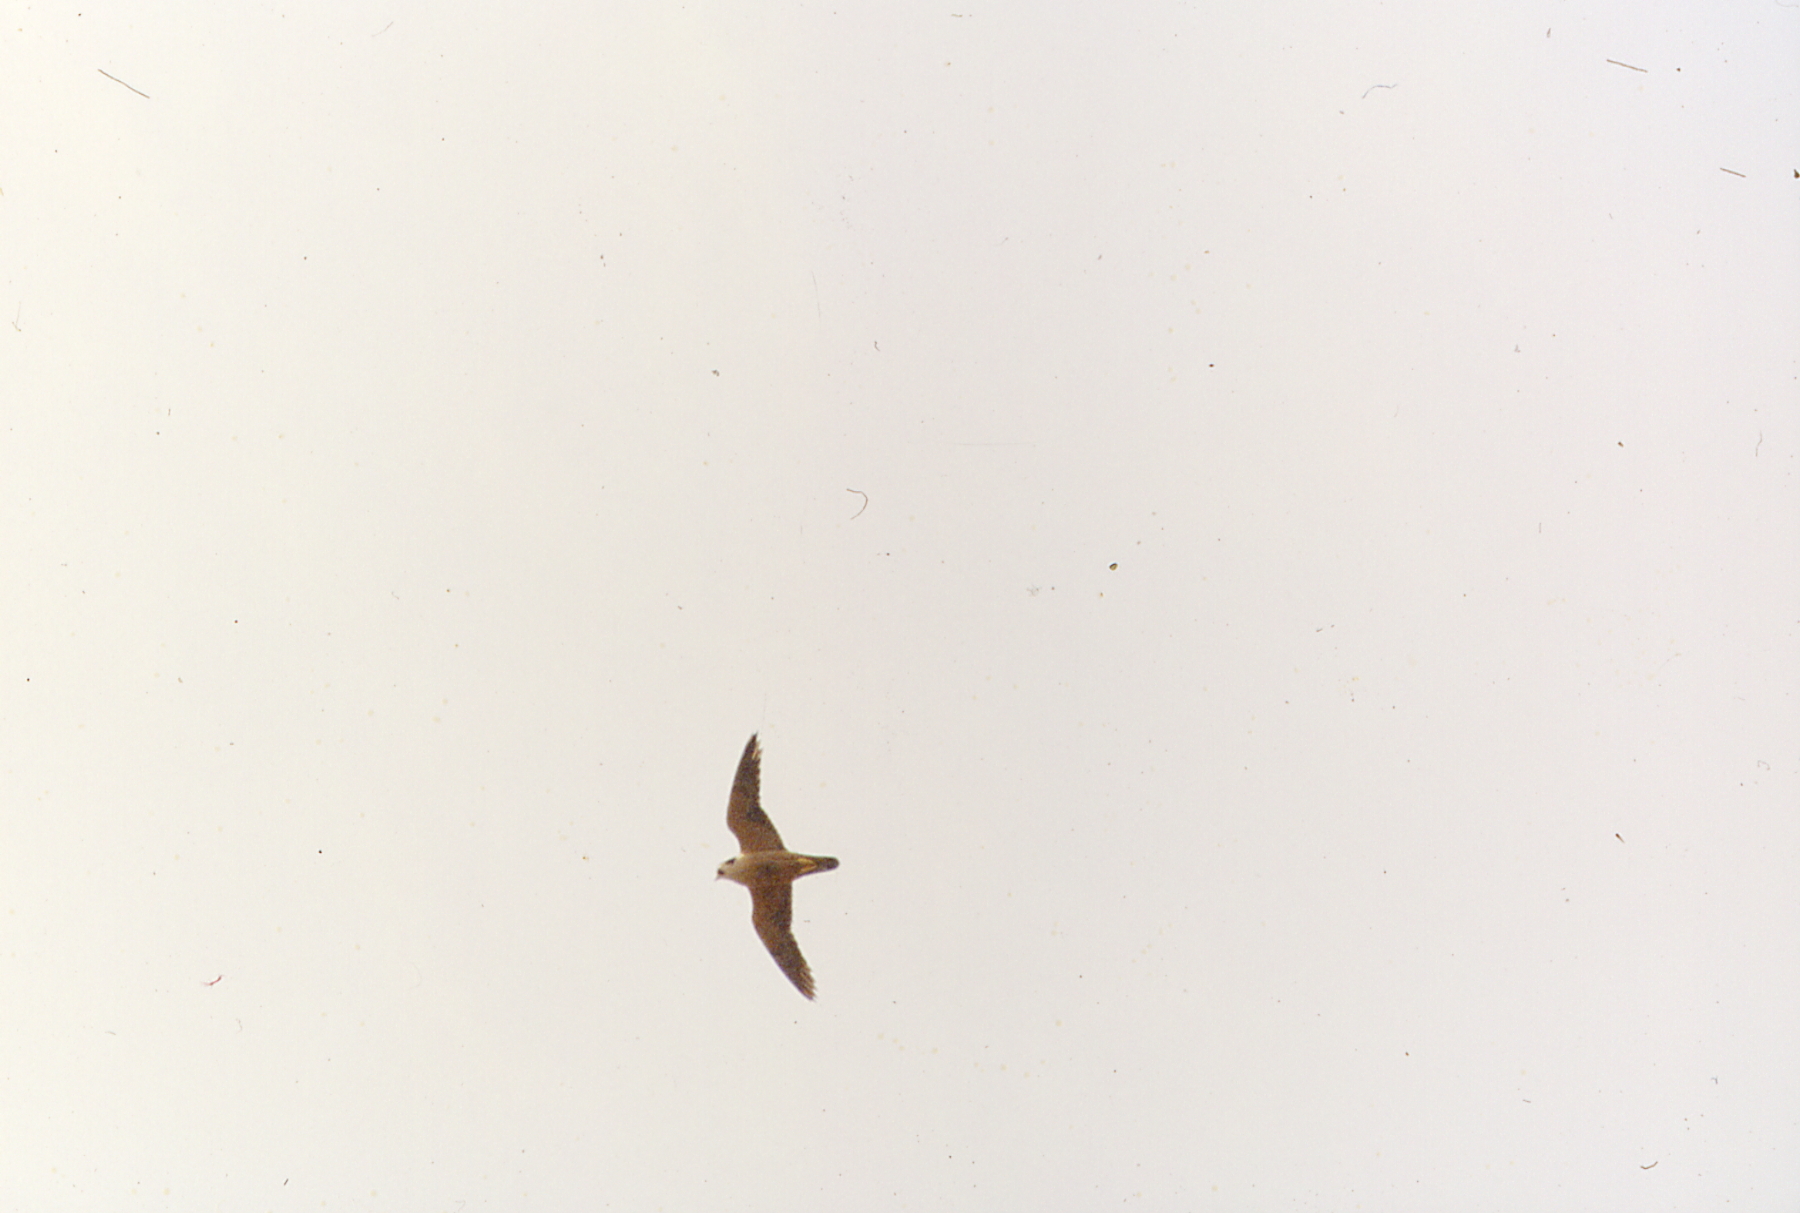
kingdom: Animalia
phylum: Chordata
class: Aves
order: Falconiformes
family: Falconidae
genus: Falco
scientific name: Falco fasciinucha
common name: Taita falcon
